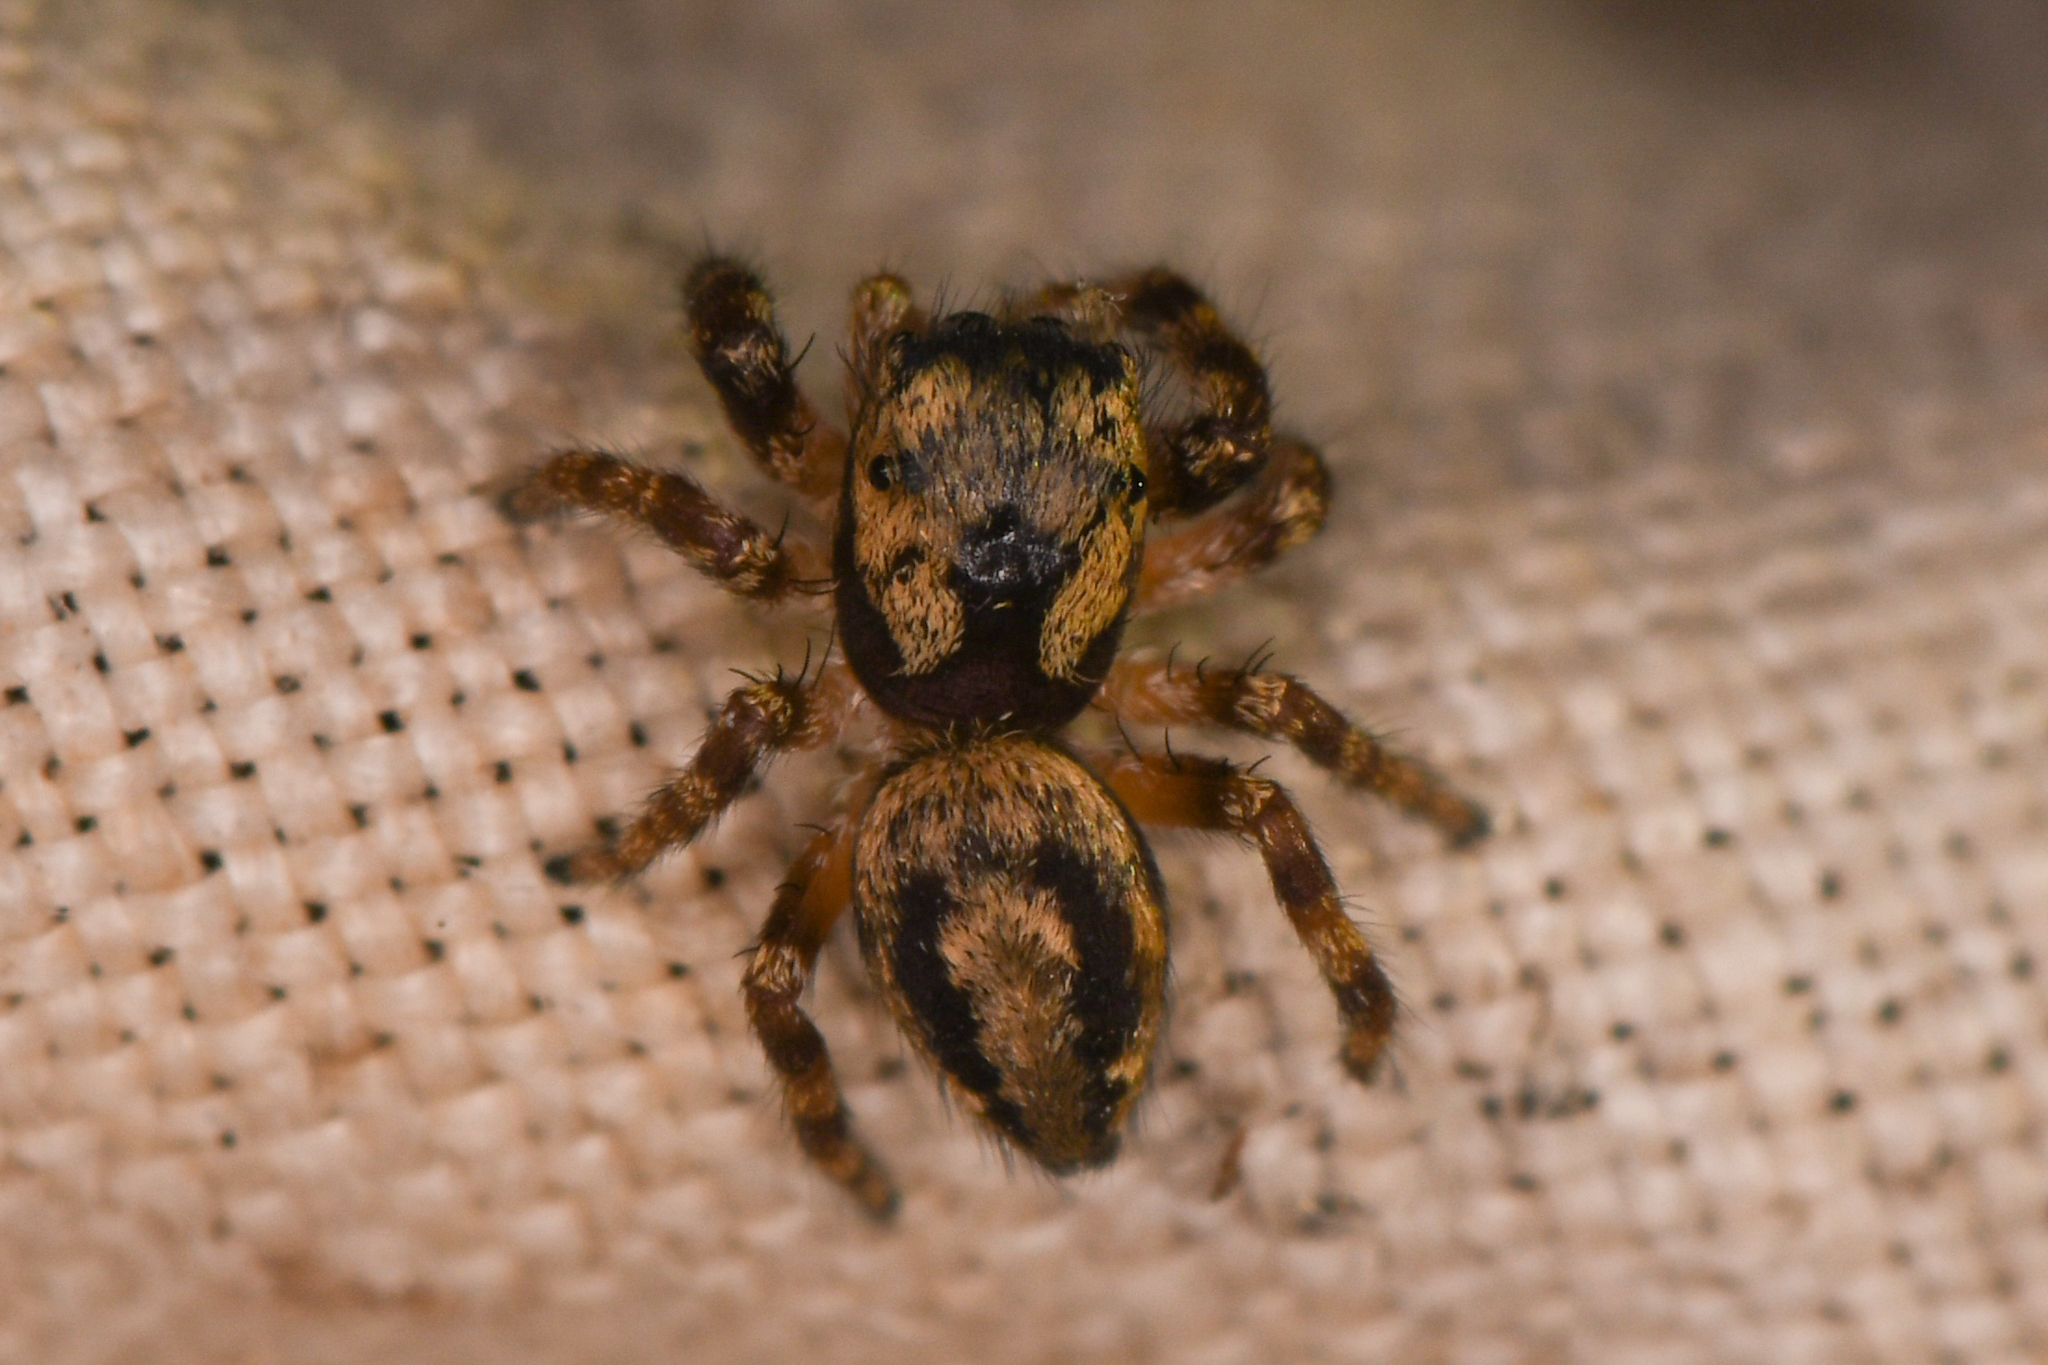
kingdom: Animalia
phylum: Arthropoda
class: Arachnida
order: Araneae
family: Salticidae
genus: Pelegrina
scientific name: Pelegrina balia
